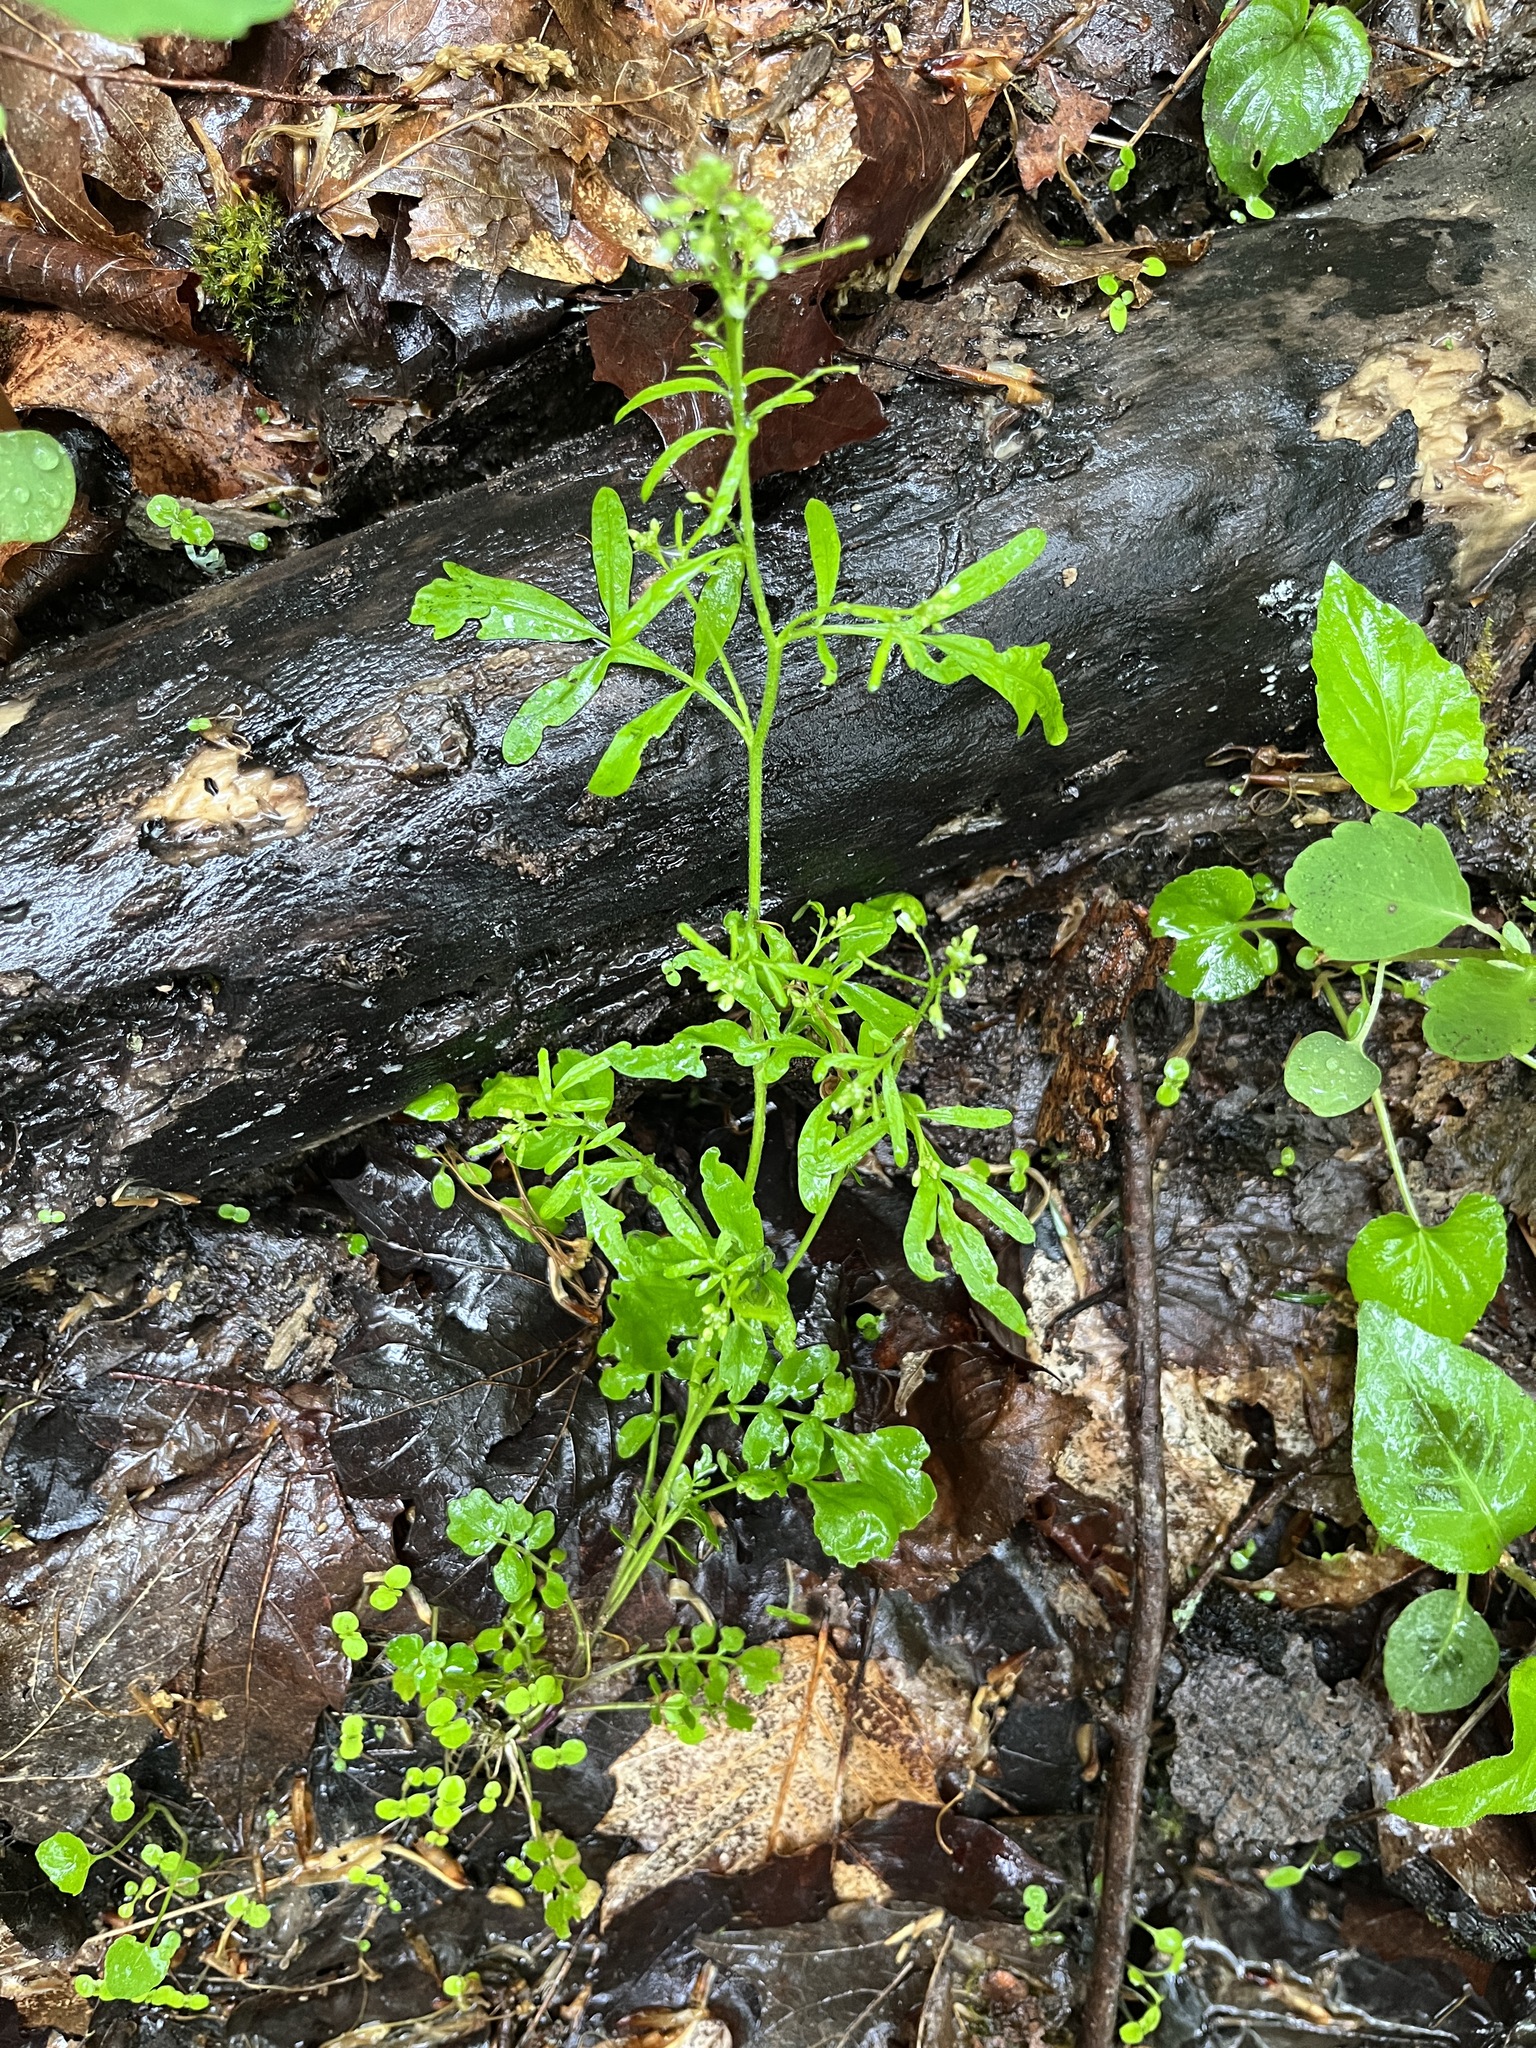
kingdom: Plantae
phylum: Tracheophyta
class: Magnoliopsida
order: Brassicales
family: Brassicaceae
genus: Cardamine
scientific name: Cardamine pensylvanica
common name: Pennsylvania bittercress
